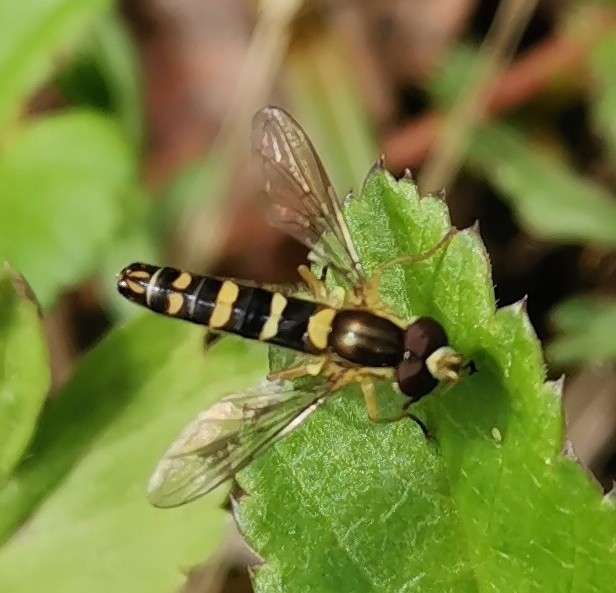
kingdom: Animalia
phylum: Arthropoda
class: Insecta
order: Diptera
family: Syrphidae
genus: Sphaerophoria
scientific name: Sphaerophoria scripta
